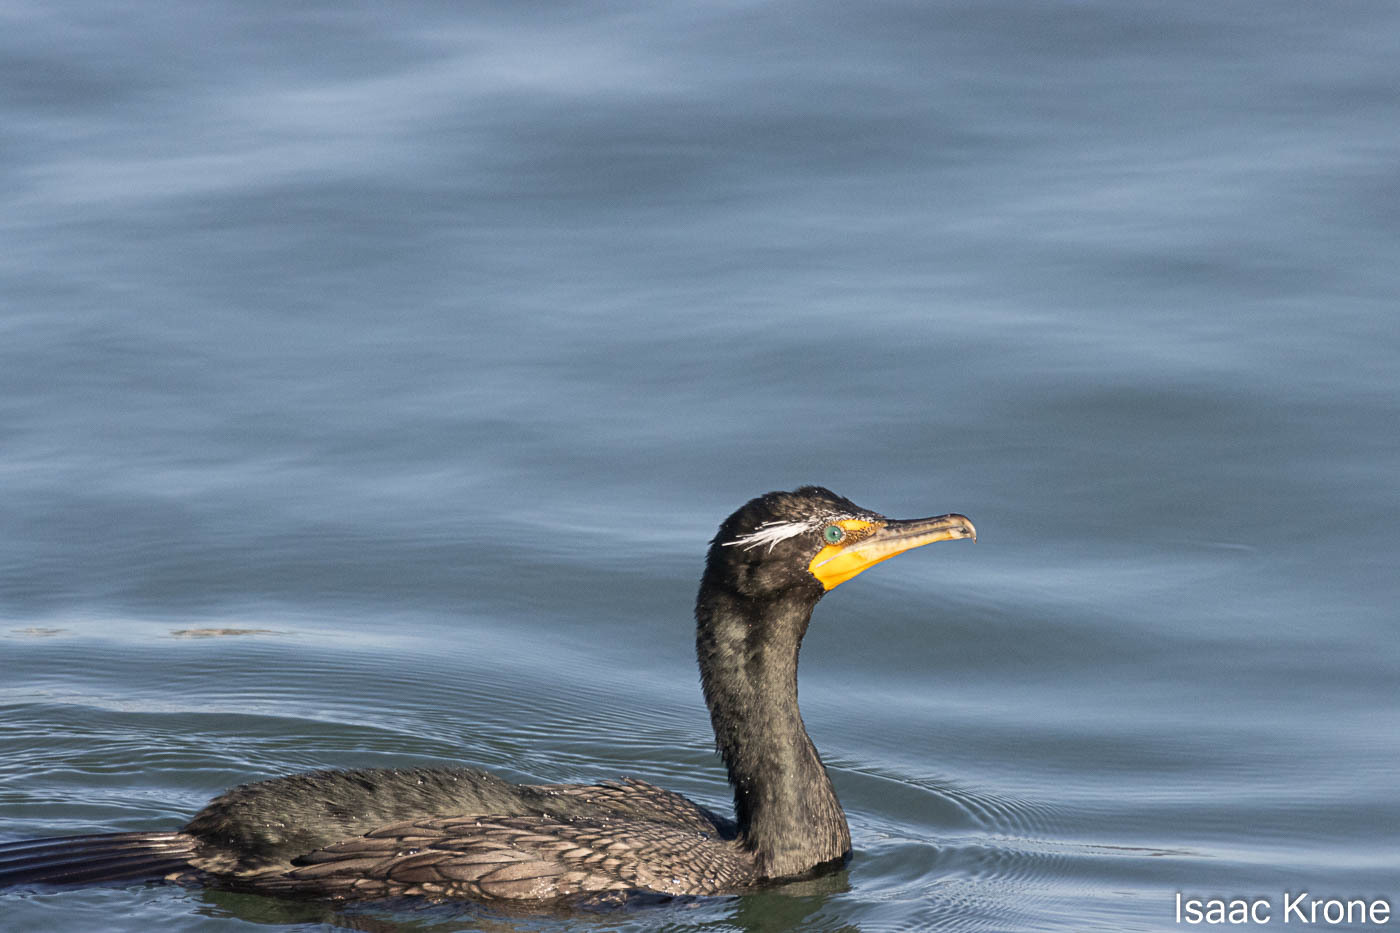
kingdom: Animalia
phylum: Chordata
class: Aves
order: Suliformes
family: Phalacrocoracidae
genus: Phalacrocorax
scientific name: Phalacrocorax auritus
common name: Double-crested cormorant
